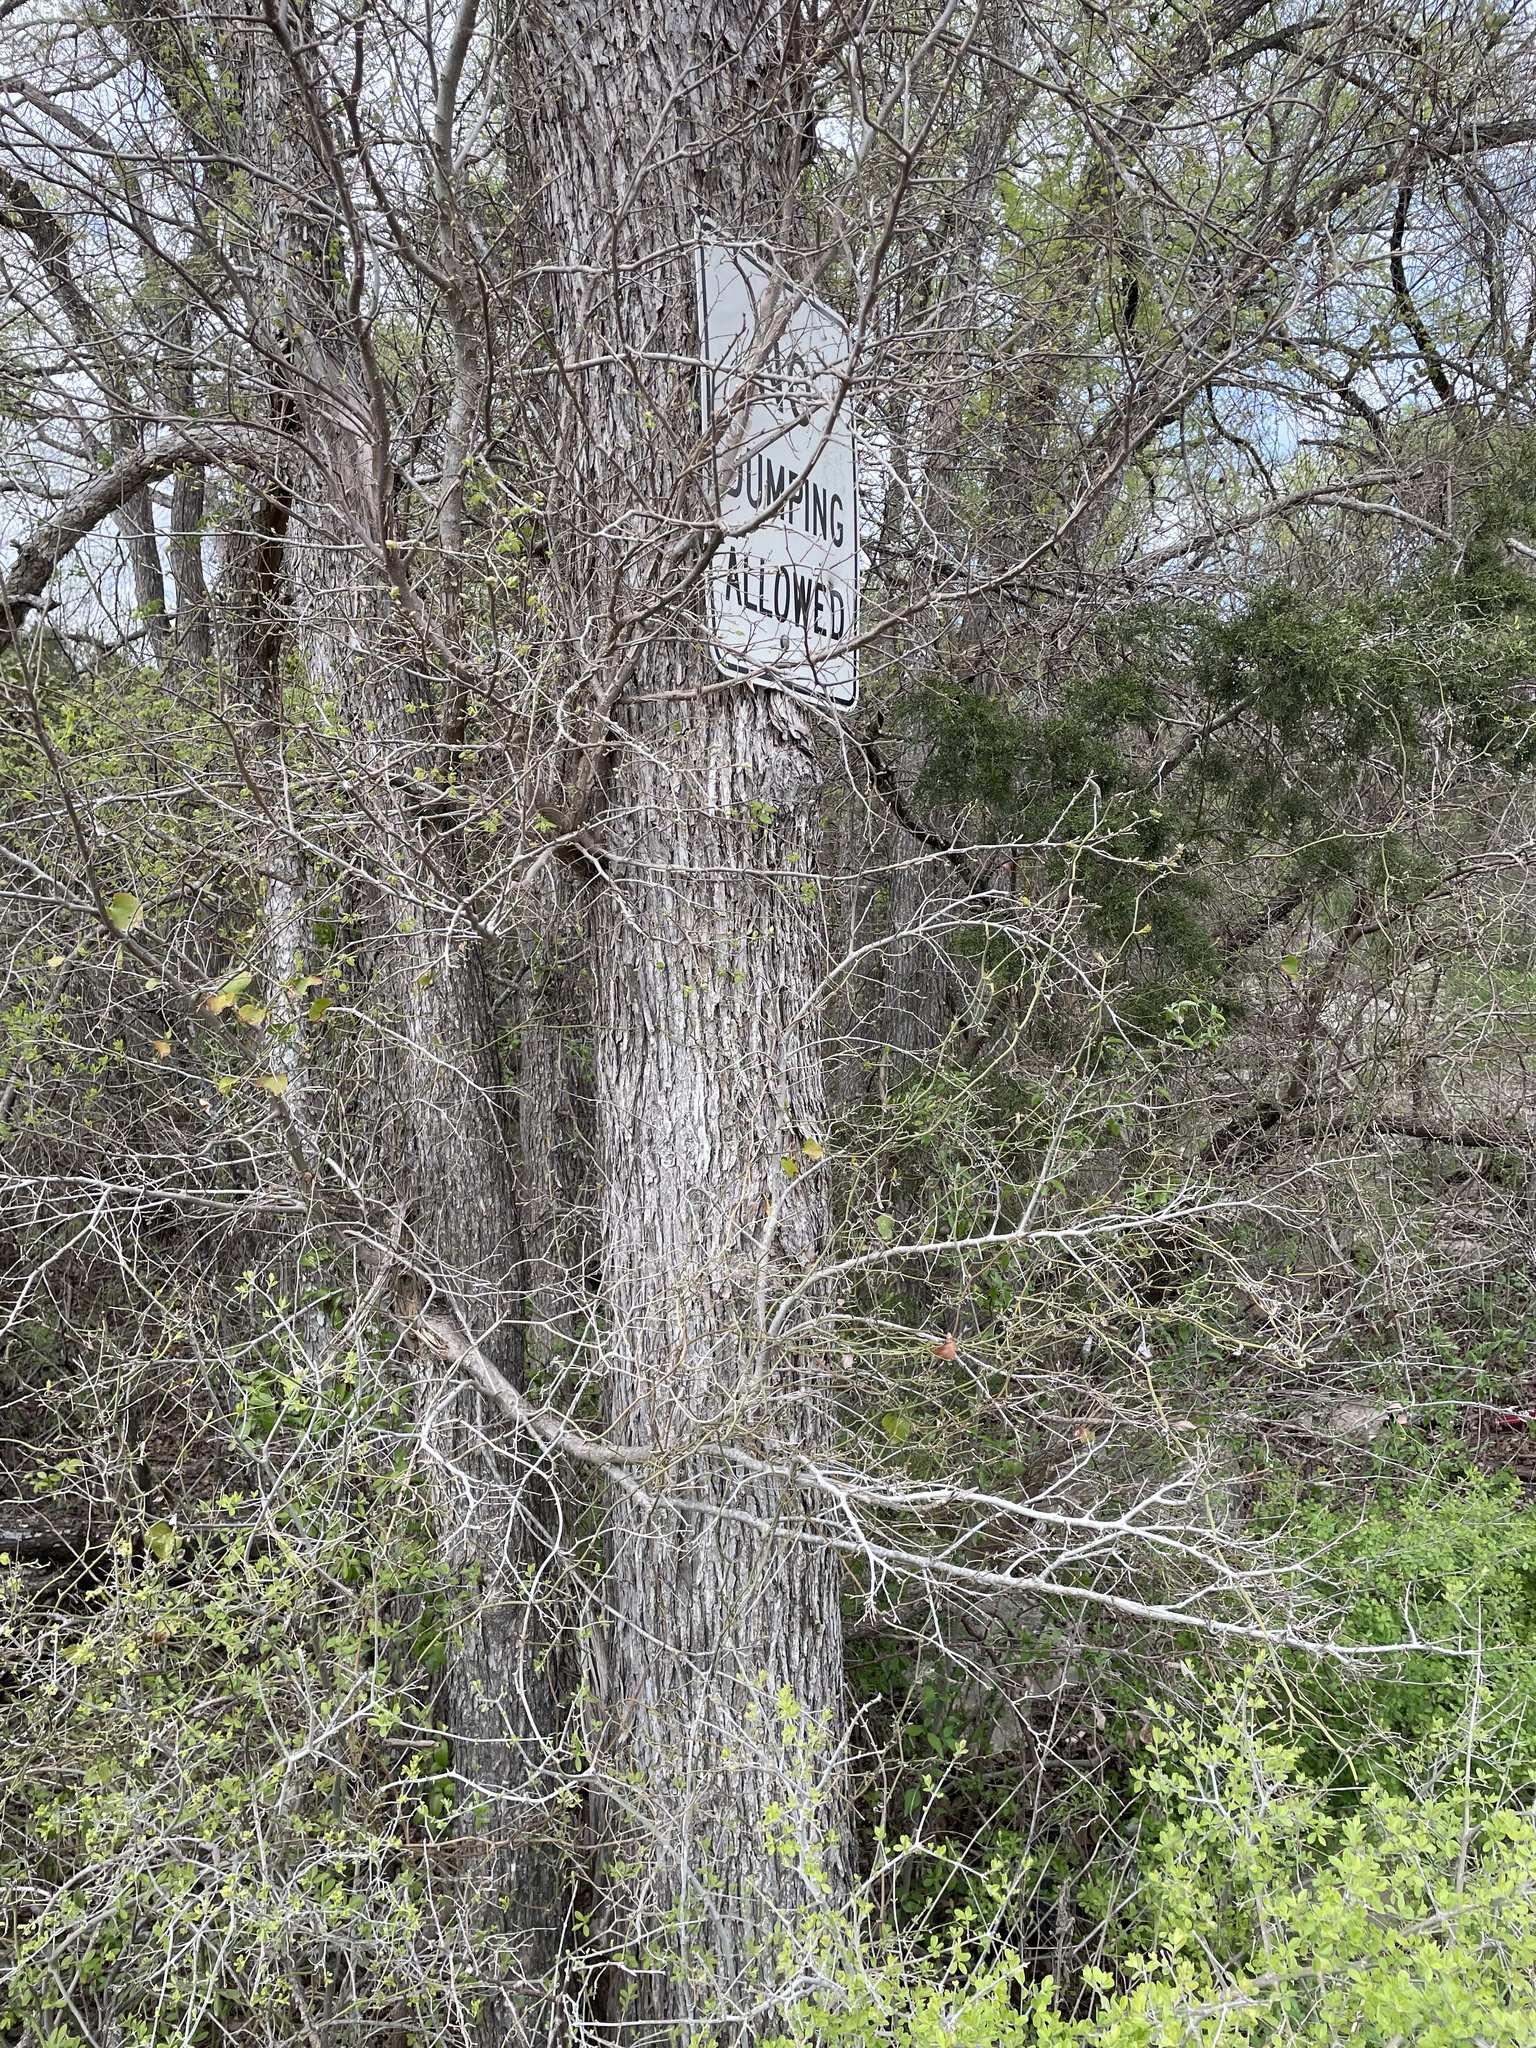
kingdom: Plantae
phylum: Tracheophyta
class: Magnoliopsida
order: Rosales
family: Ulmaceae
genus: Ulmus
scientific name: Ulmus crassifolia
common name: Basket elm
